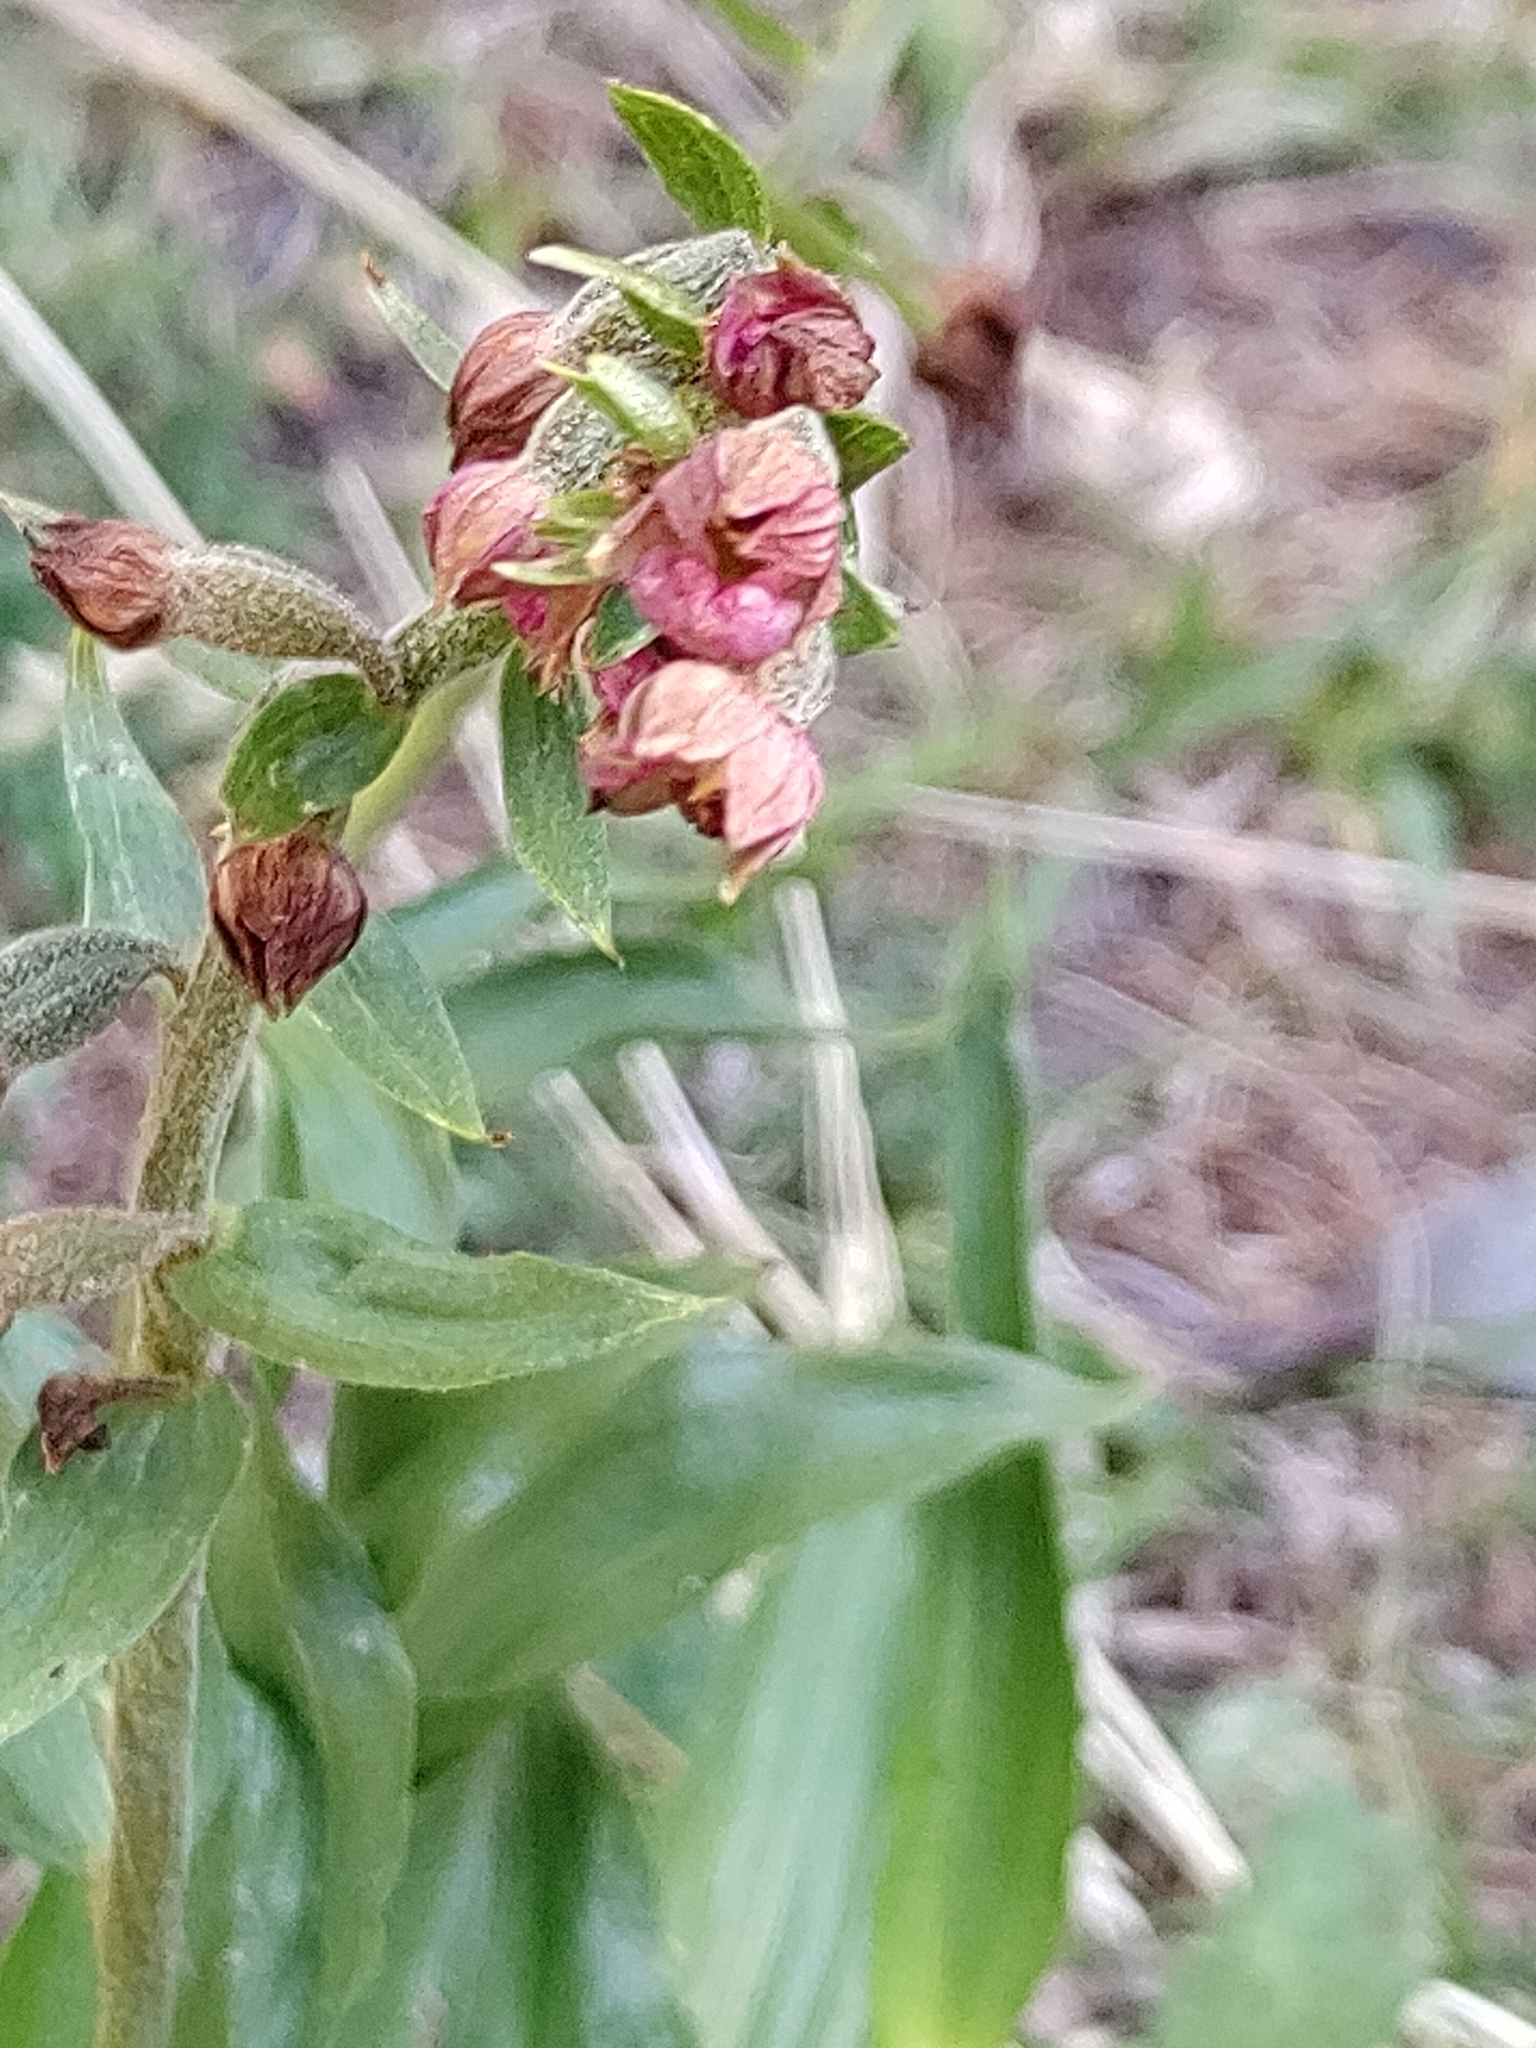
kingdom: Plantae
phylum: Tracheophyta
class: Liliopsida
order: Asparagales
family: Orchidaceae
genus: Epipactis
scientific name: Epipactis atrorubens
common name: Dark-red helleborine
